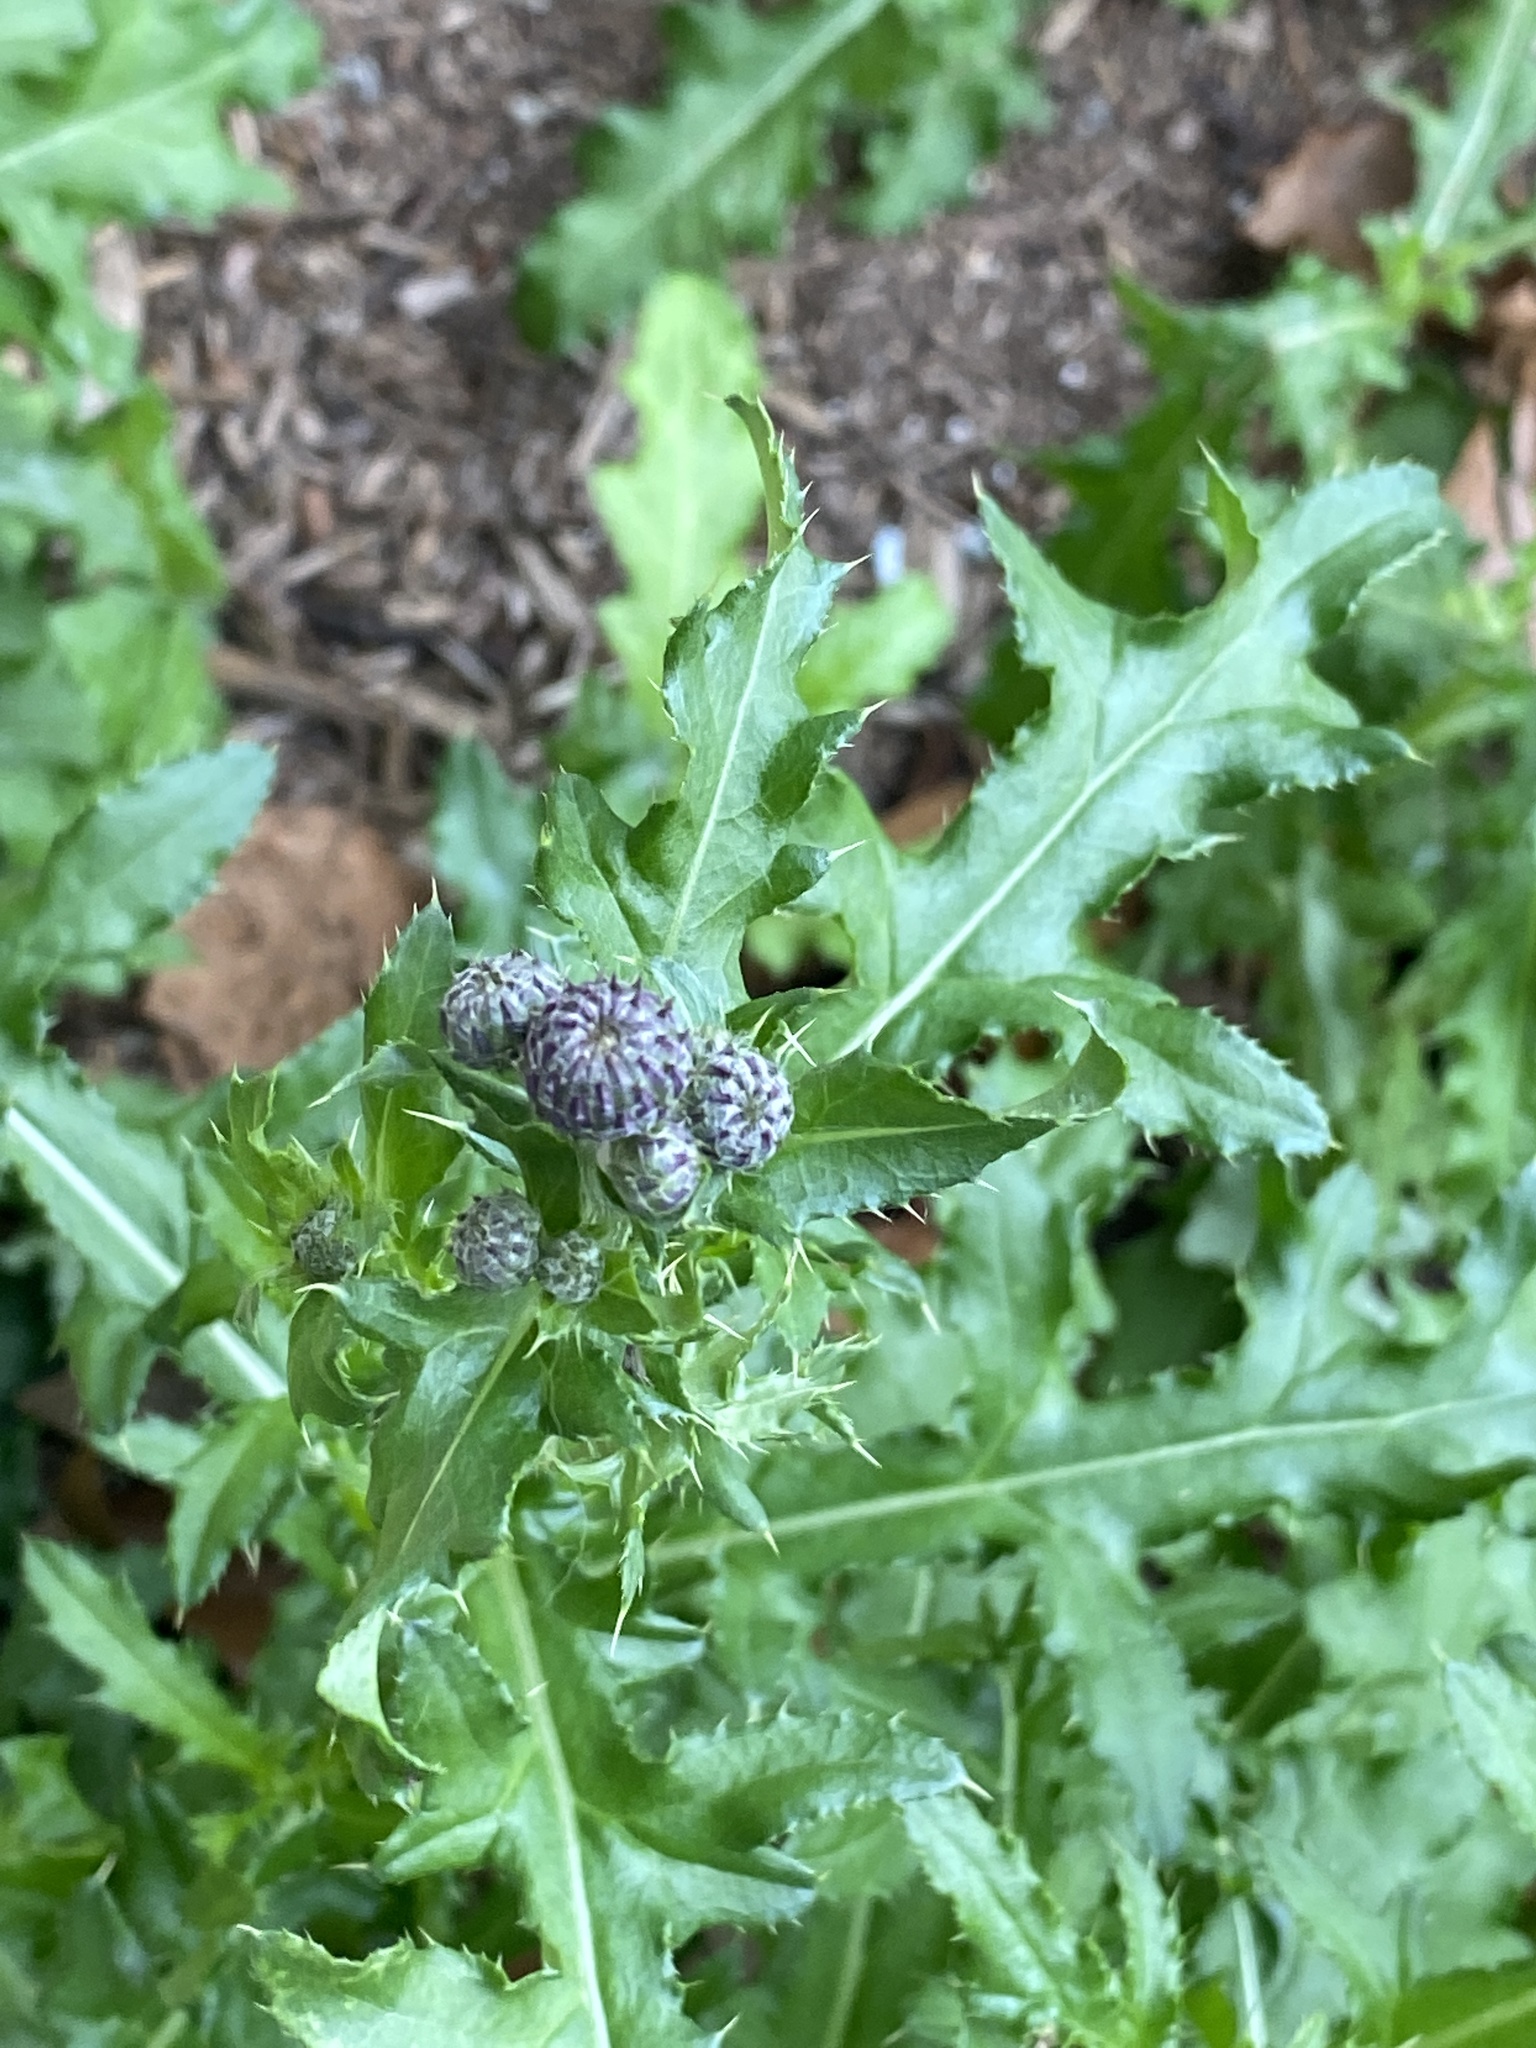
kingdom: Plantae
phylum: Tracheophyta
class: Magnoliopsida
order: Asterales
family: Asteraceae
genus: Cirsium
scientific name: Cirsium arvense
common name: Creeping thistle
